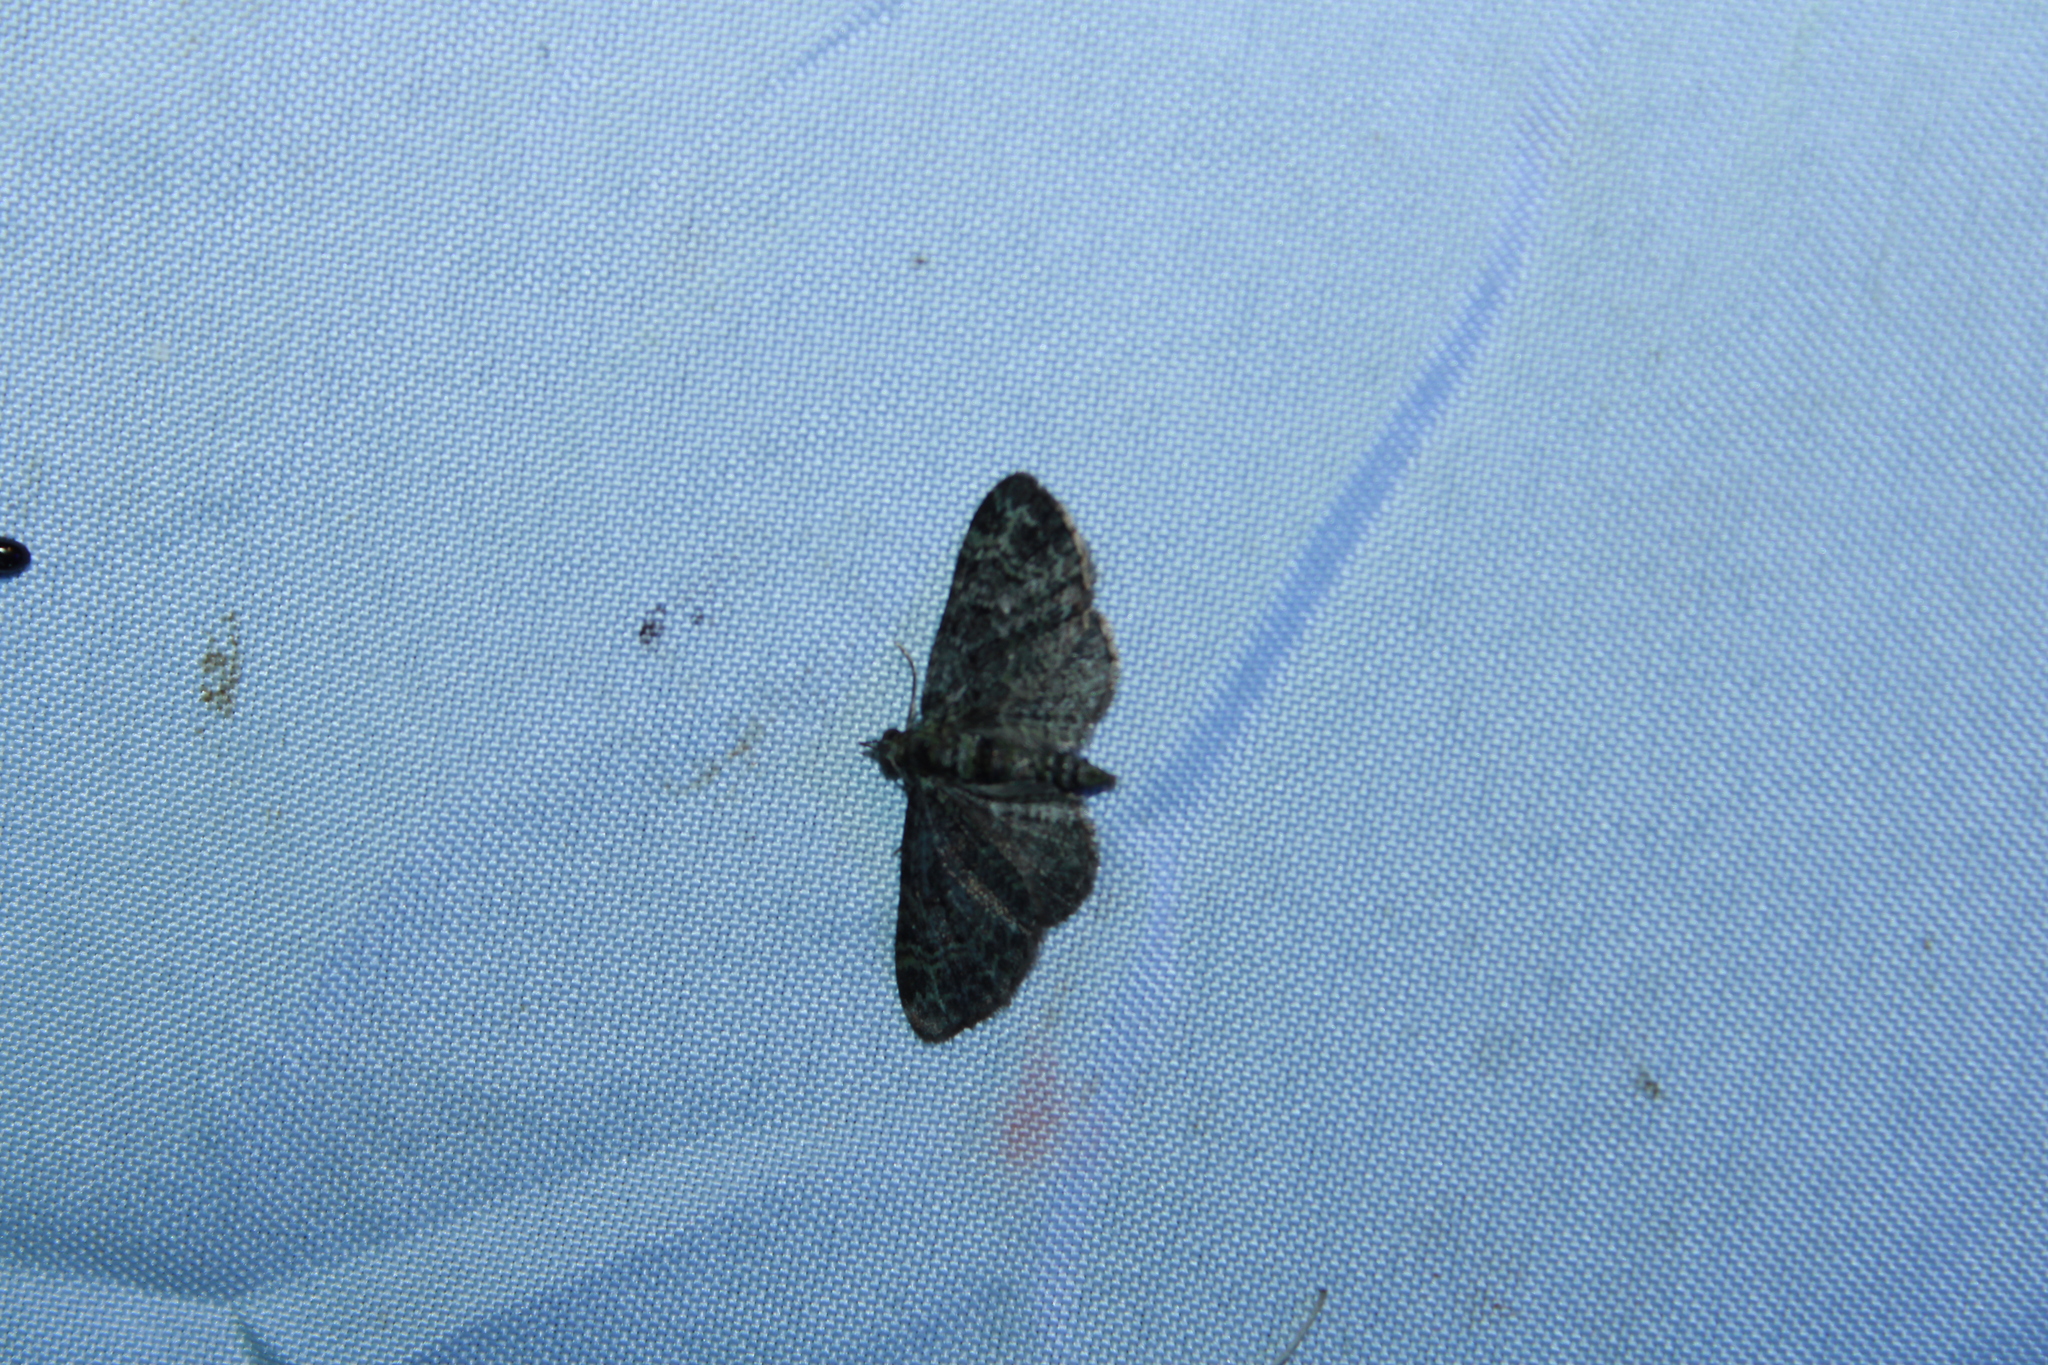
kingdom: Animalia
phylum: Arthropoda
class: Insecta
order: Lepidoptera
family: Geometridae
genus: Pasiphila
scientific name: Pasiphila rectangulata
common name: Green pug
